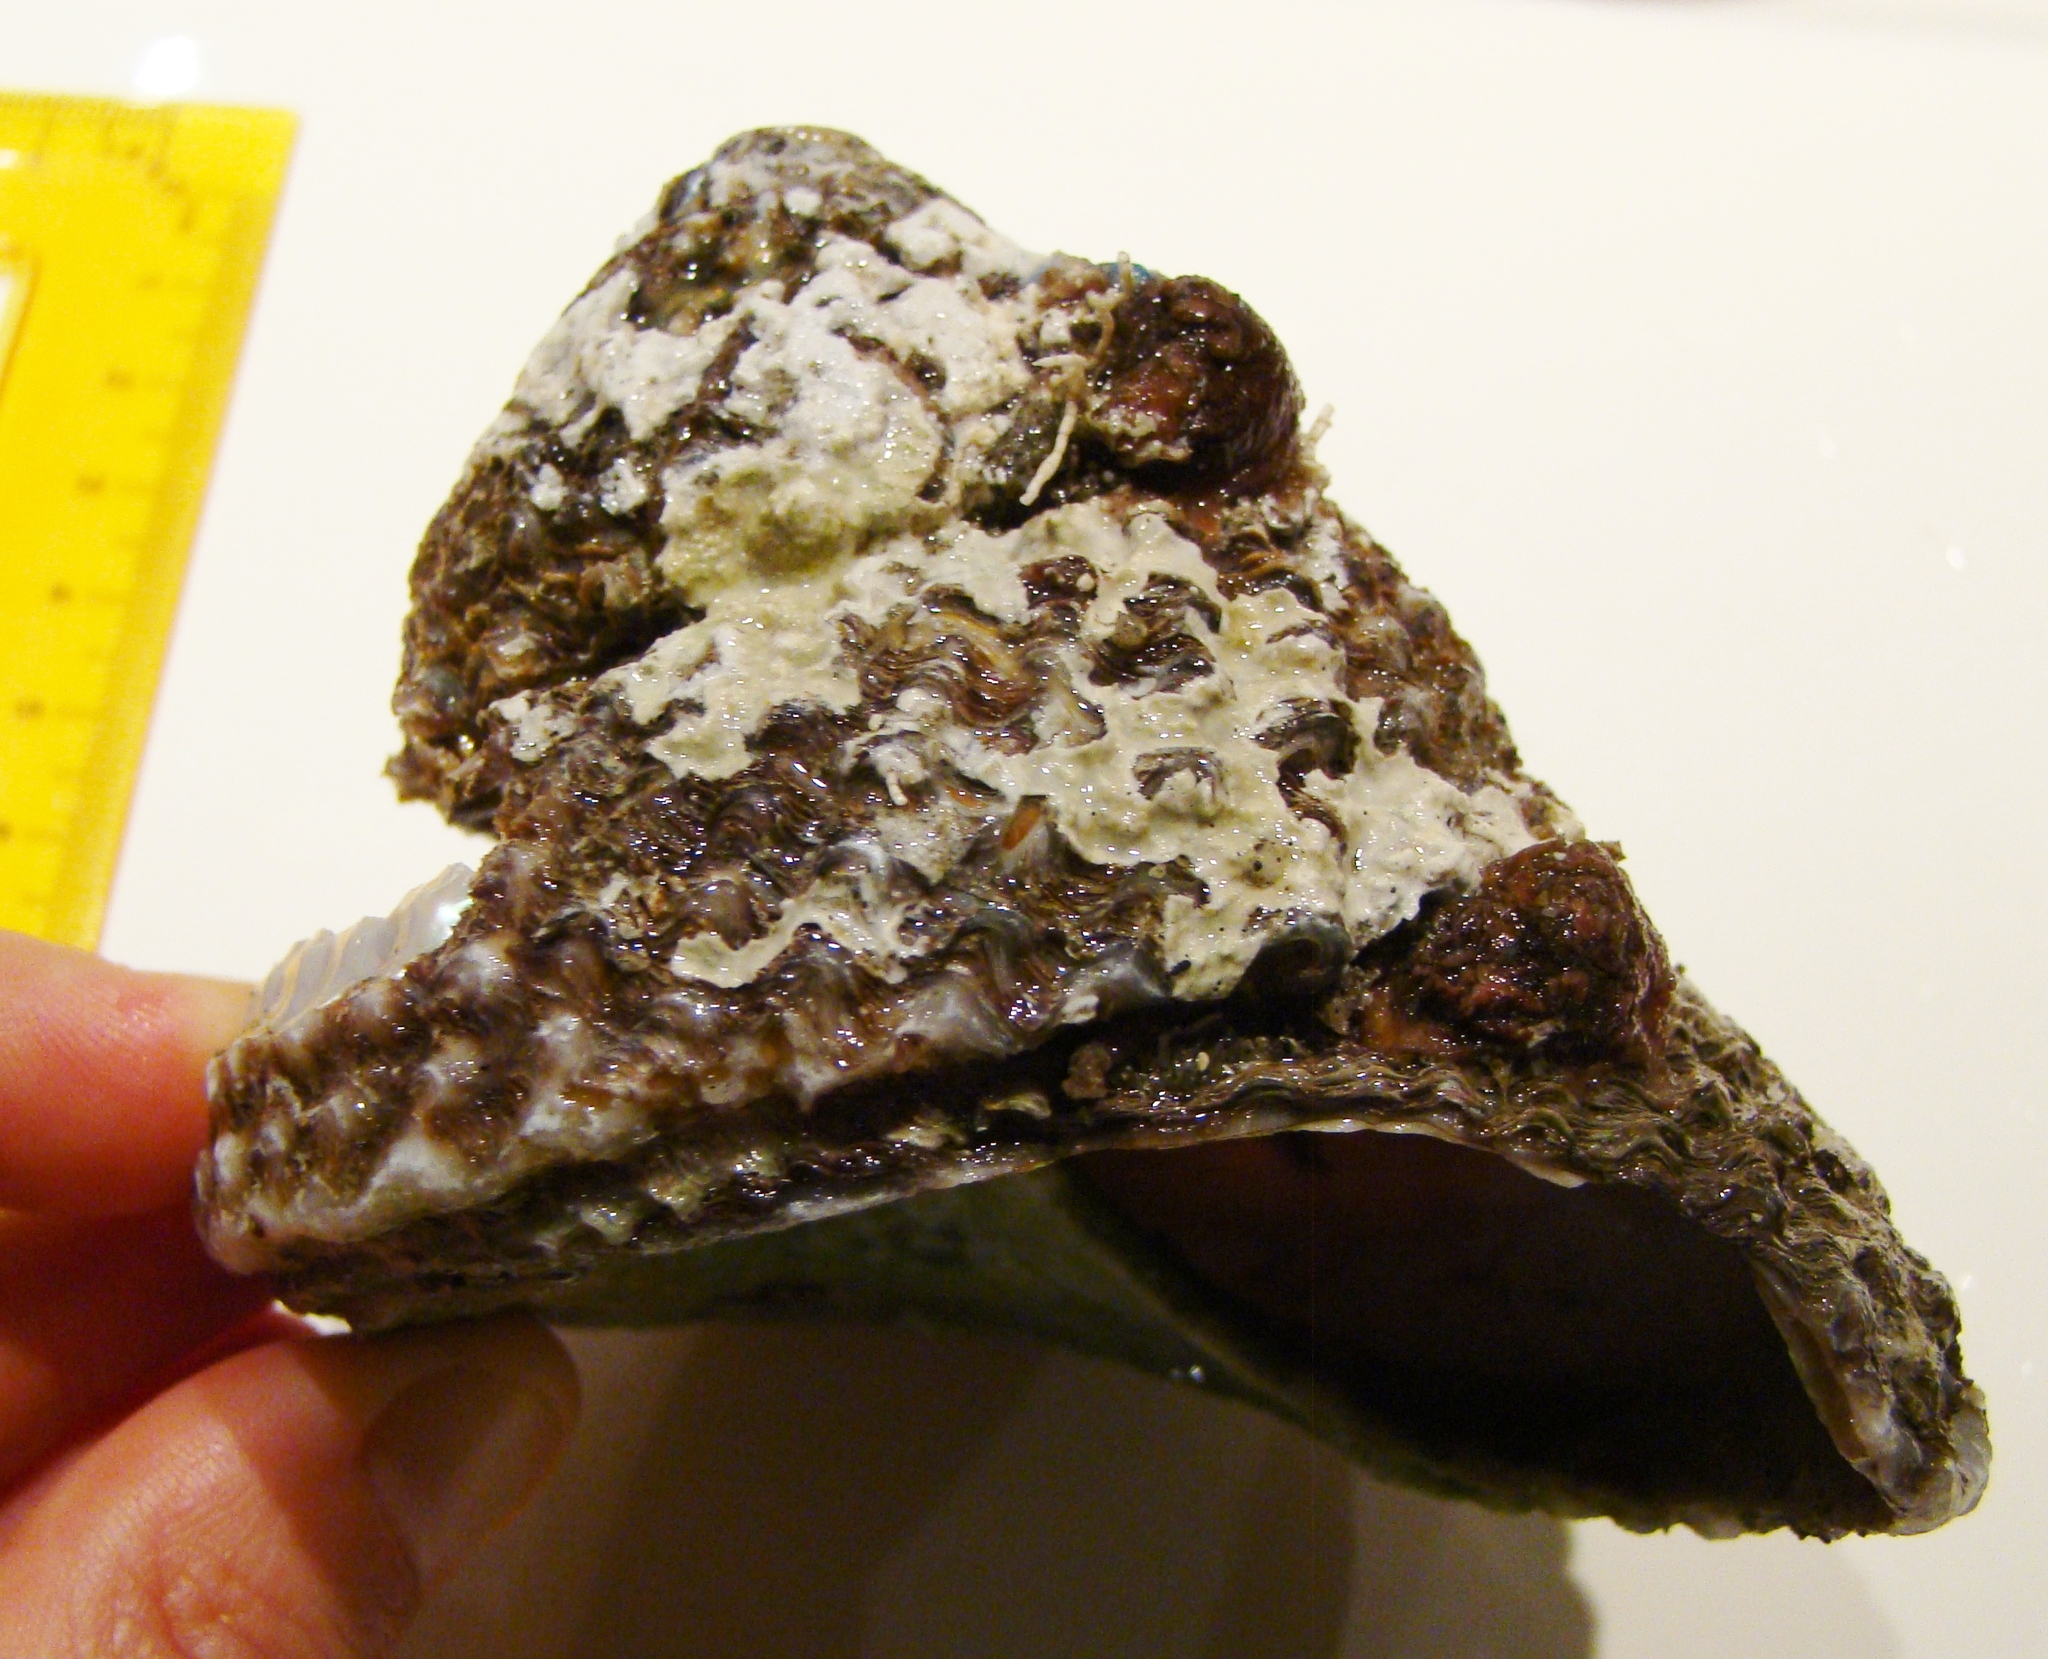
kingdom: Animalia
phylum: Mollusca
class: Gastropoda
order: Trochida
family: Turbinidae
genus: Cookia
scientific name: Cookia sulcata
